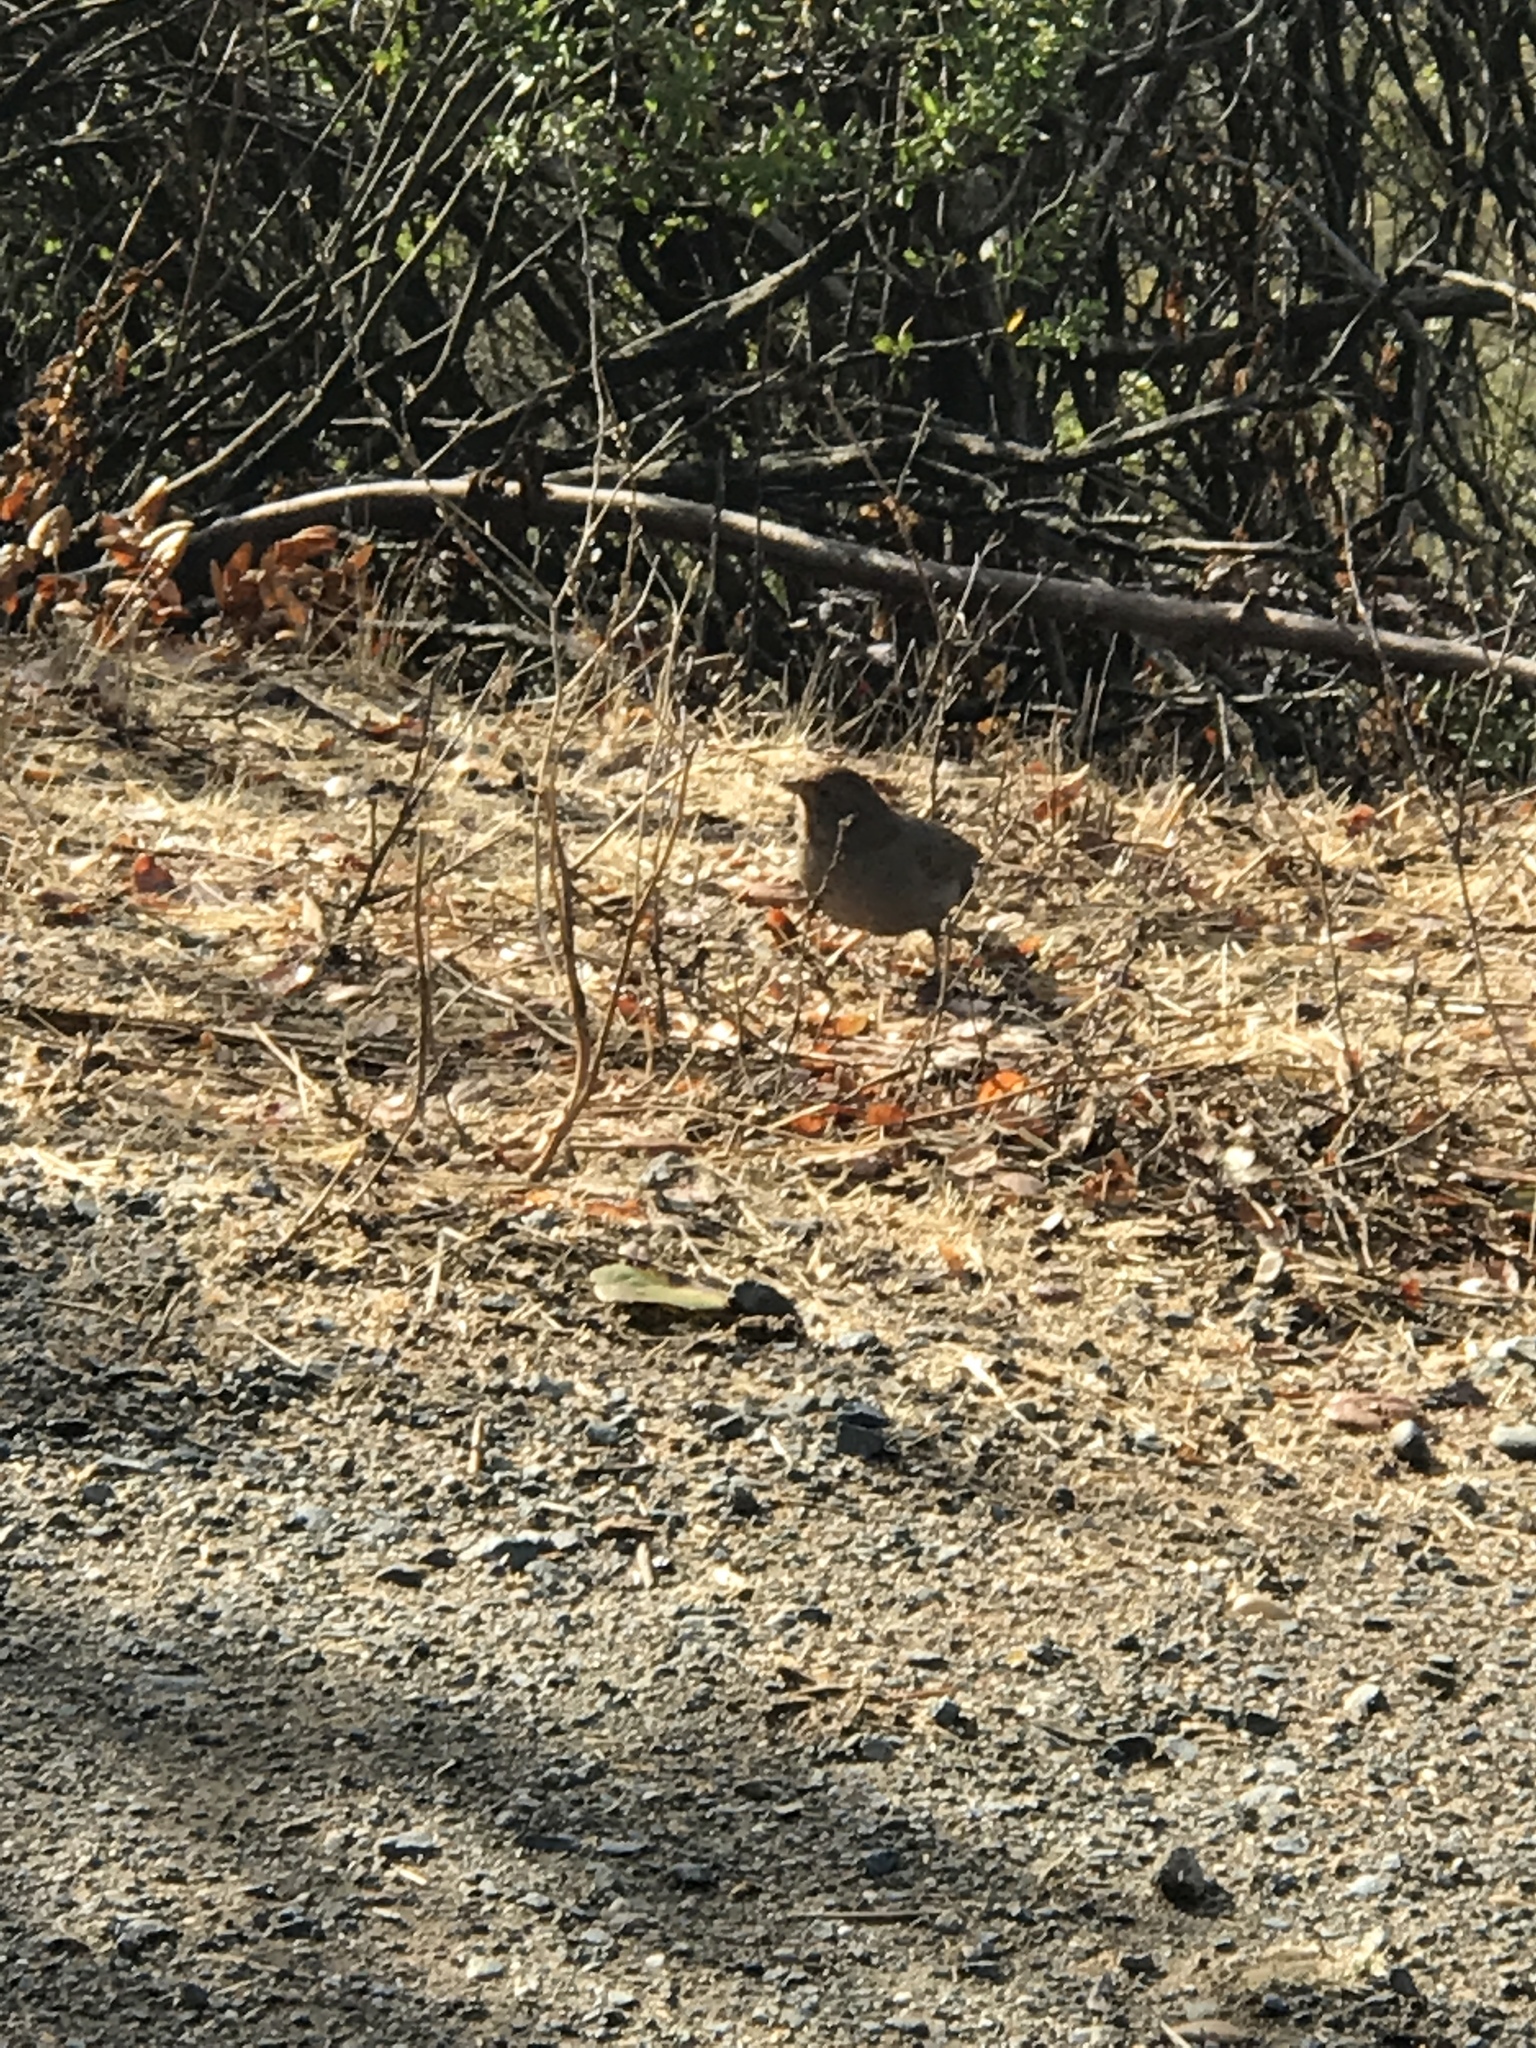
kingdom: Animalia
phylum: Chordata
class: Aves
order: Passeriformes
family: Passerellidae
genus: Melozone
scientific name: Melozone crissalis
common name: California towhee
